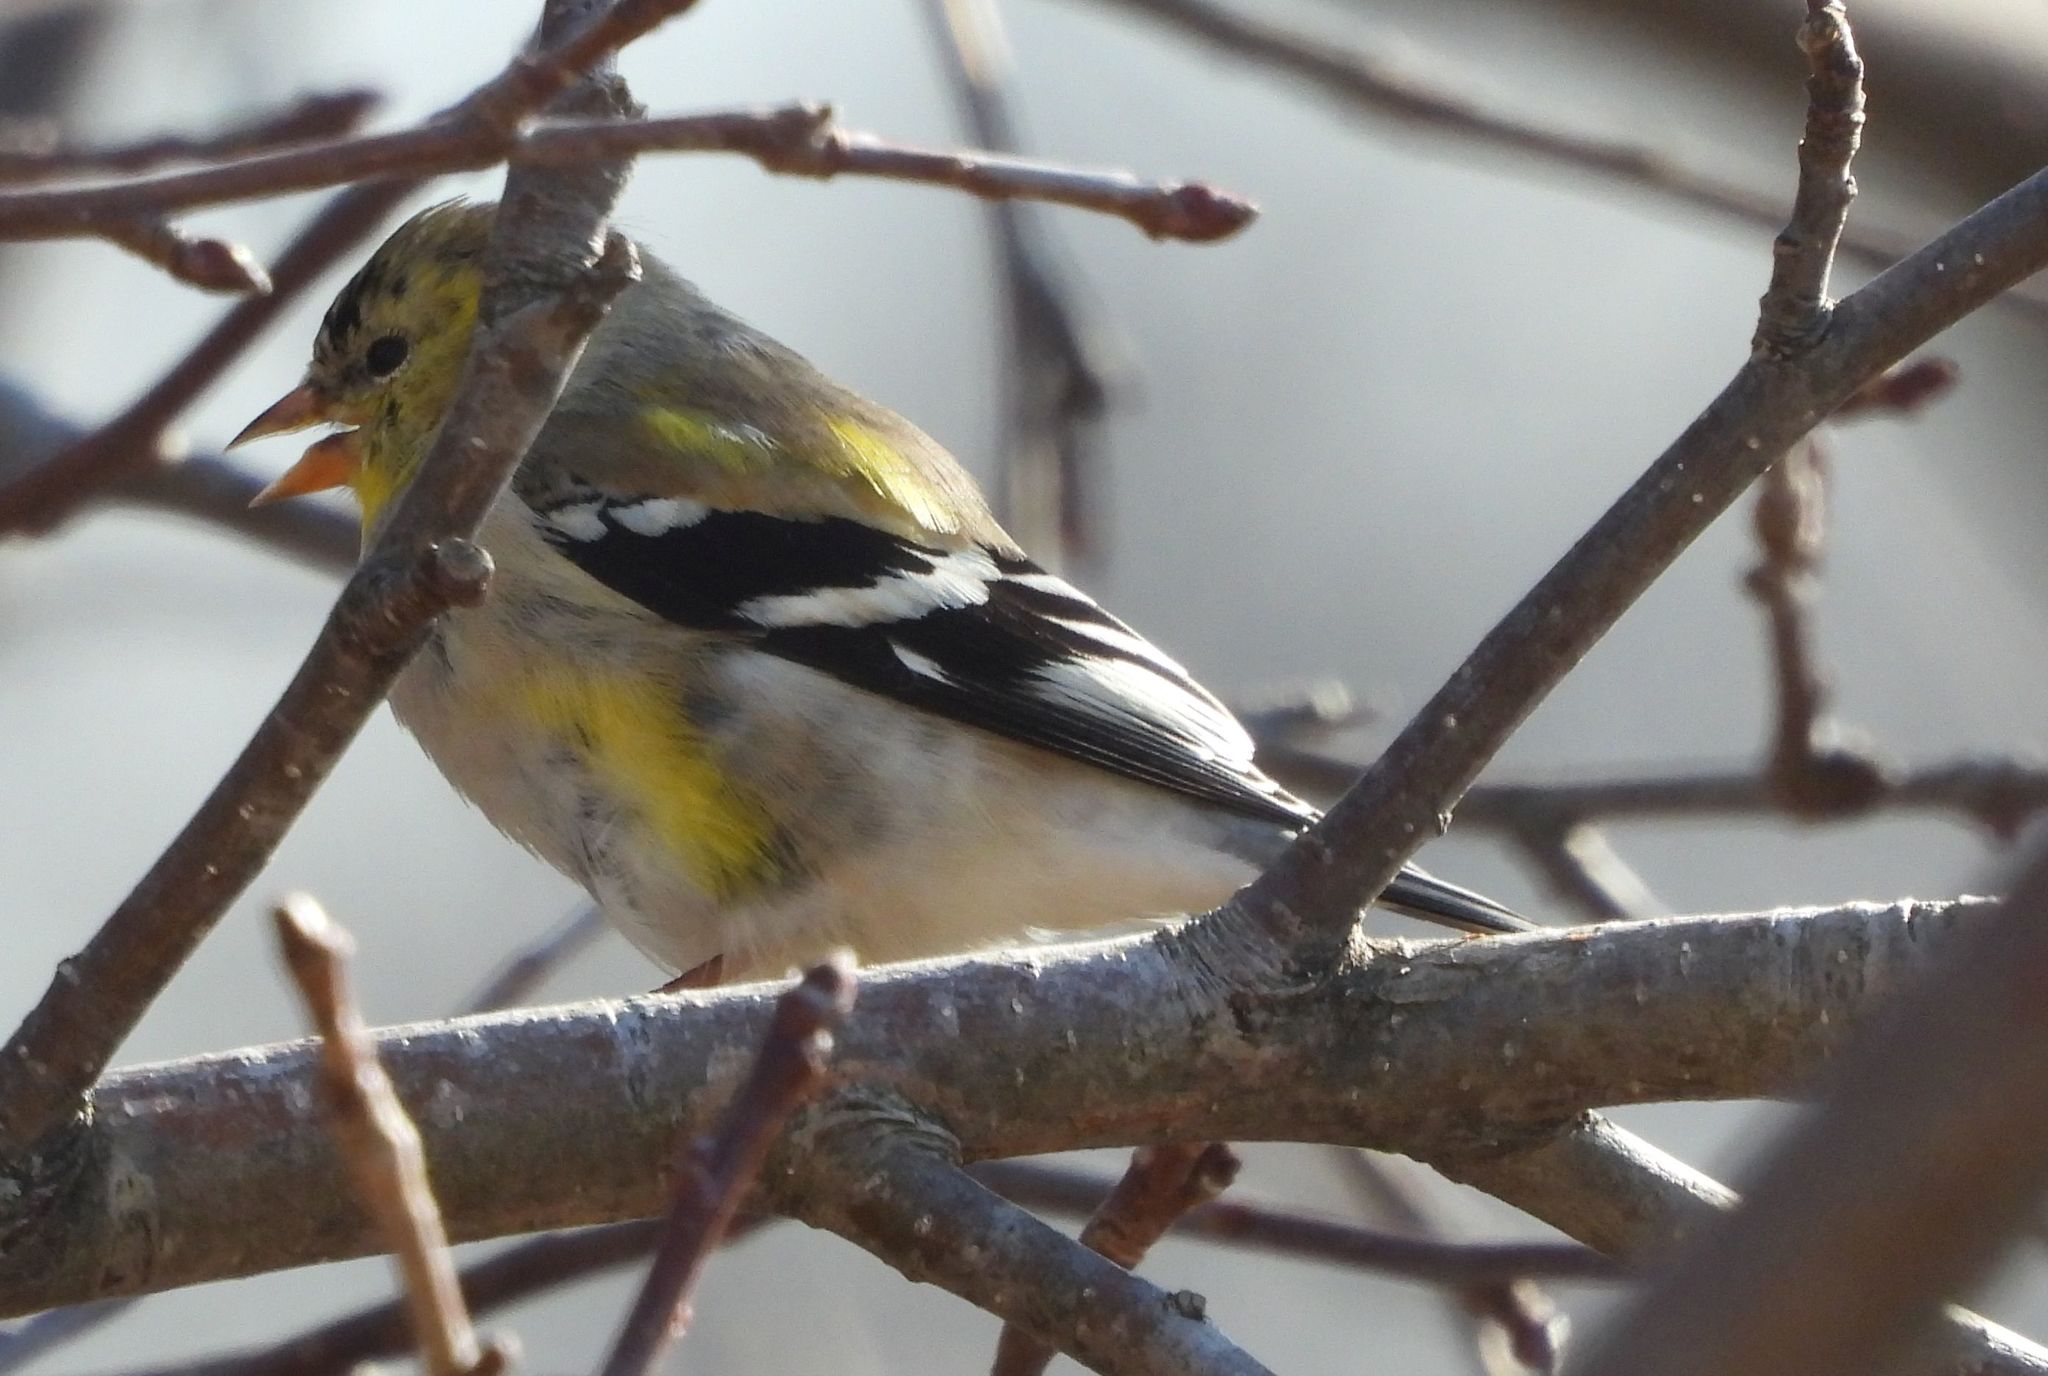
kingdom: Animalia
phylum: Chordata
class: Aves
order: Passeriformes
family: Fringillidae
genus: Spinus
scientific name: Spinus tristis
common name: American goldfinch
